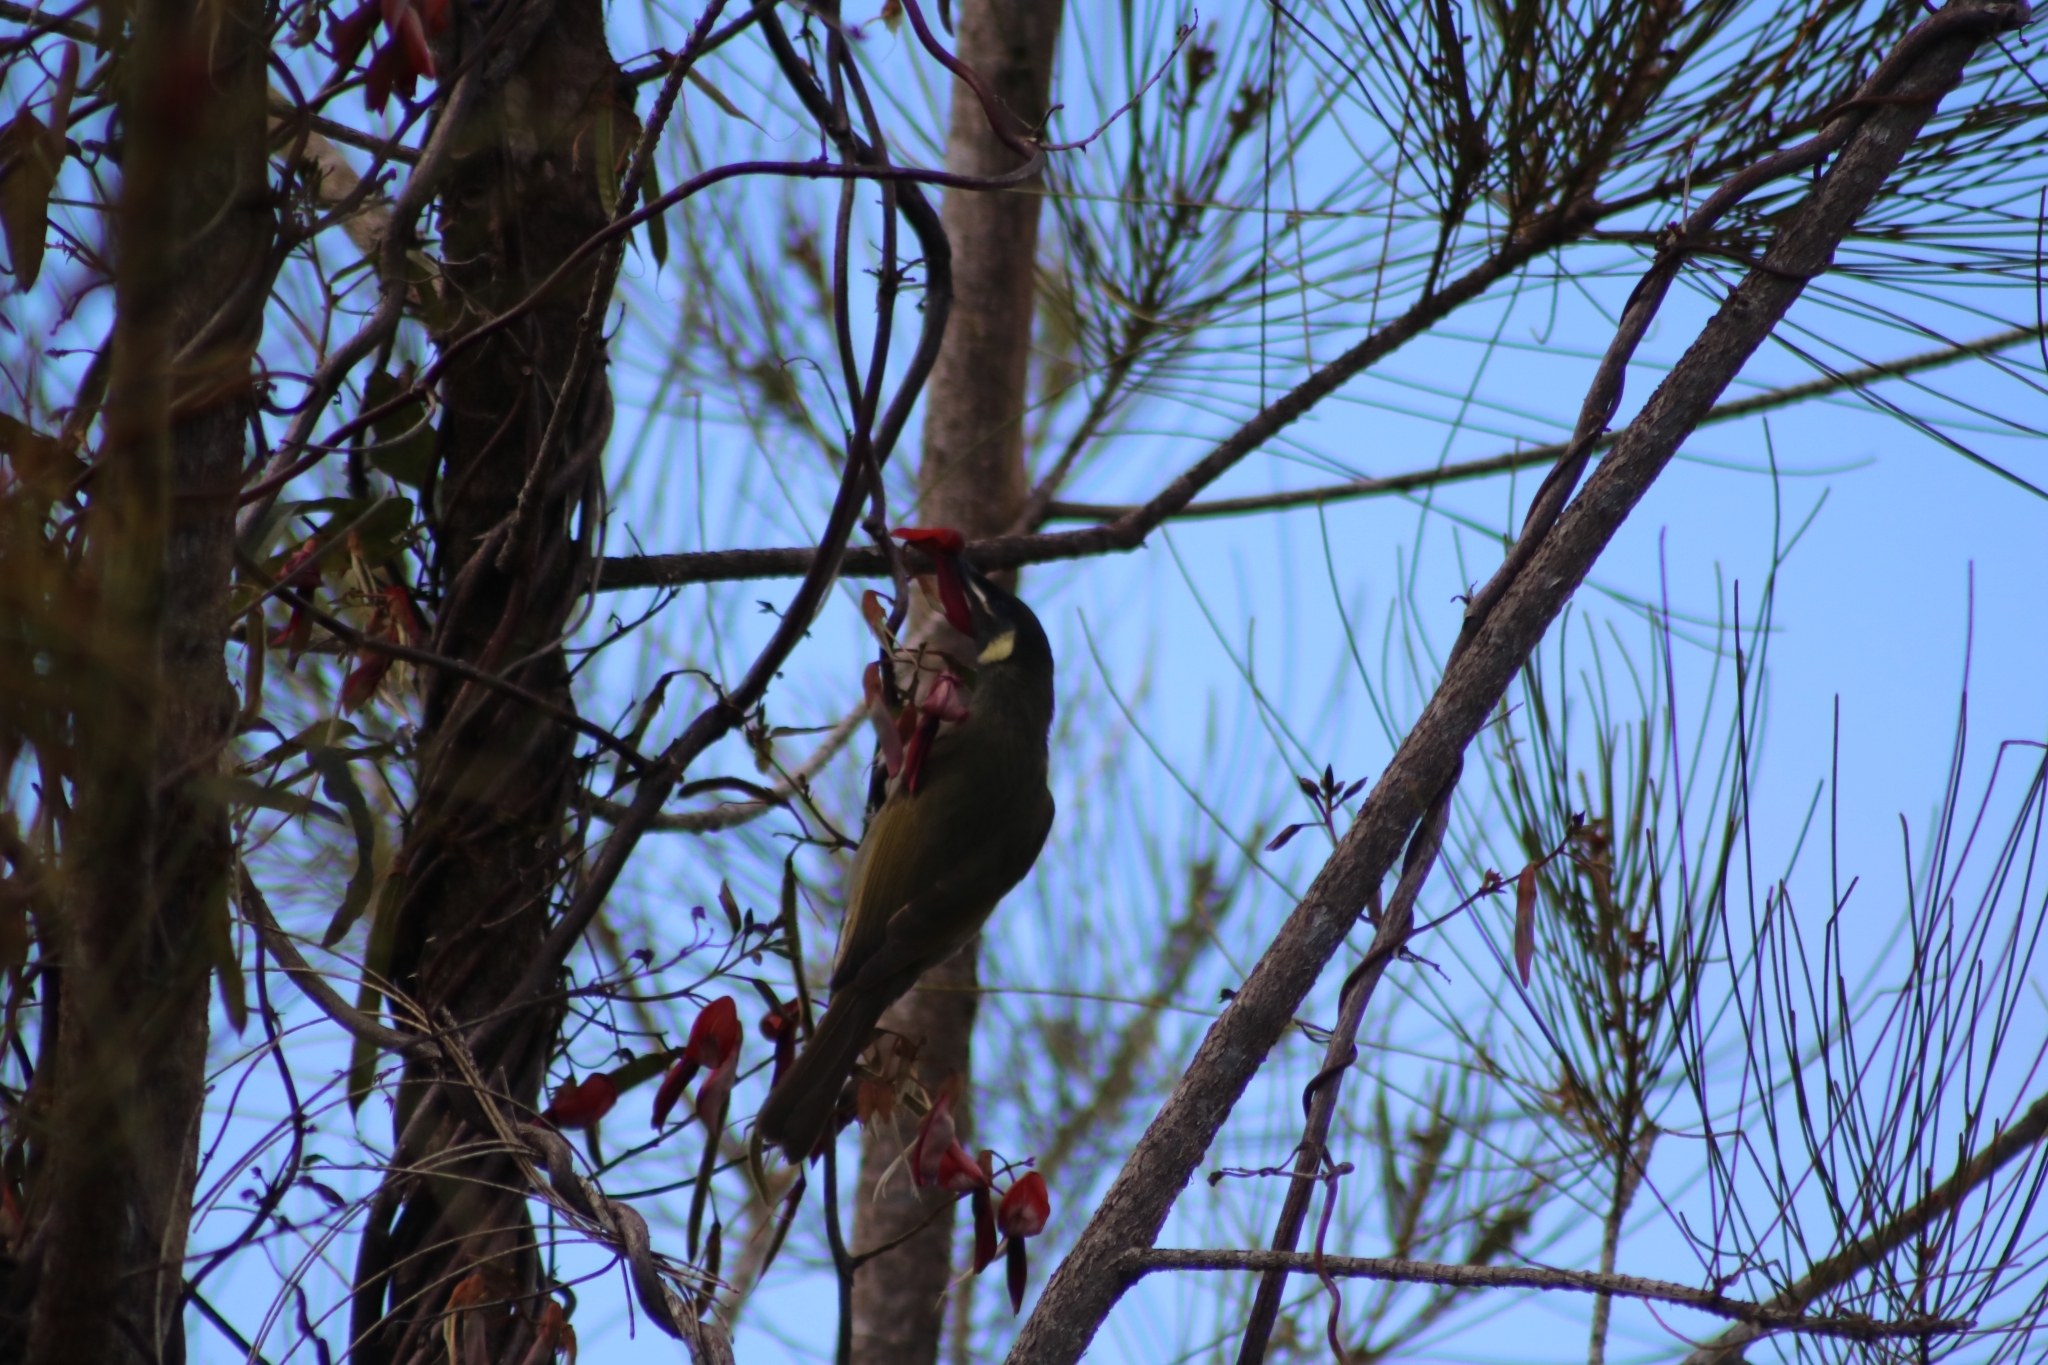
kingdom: Animalia
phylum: Chordata
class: Aves
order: Passeriformes
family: Meliphagidae
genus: Meliphaga
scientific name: Meliphaga lewinii
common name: Lewin's honeyeater
